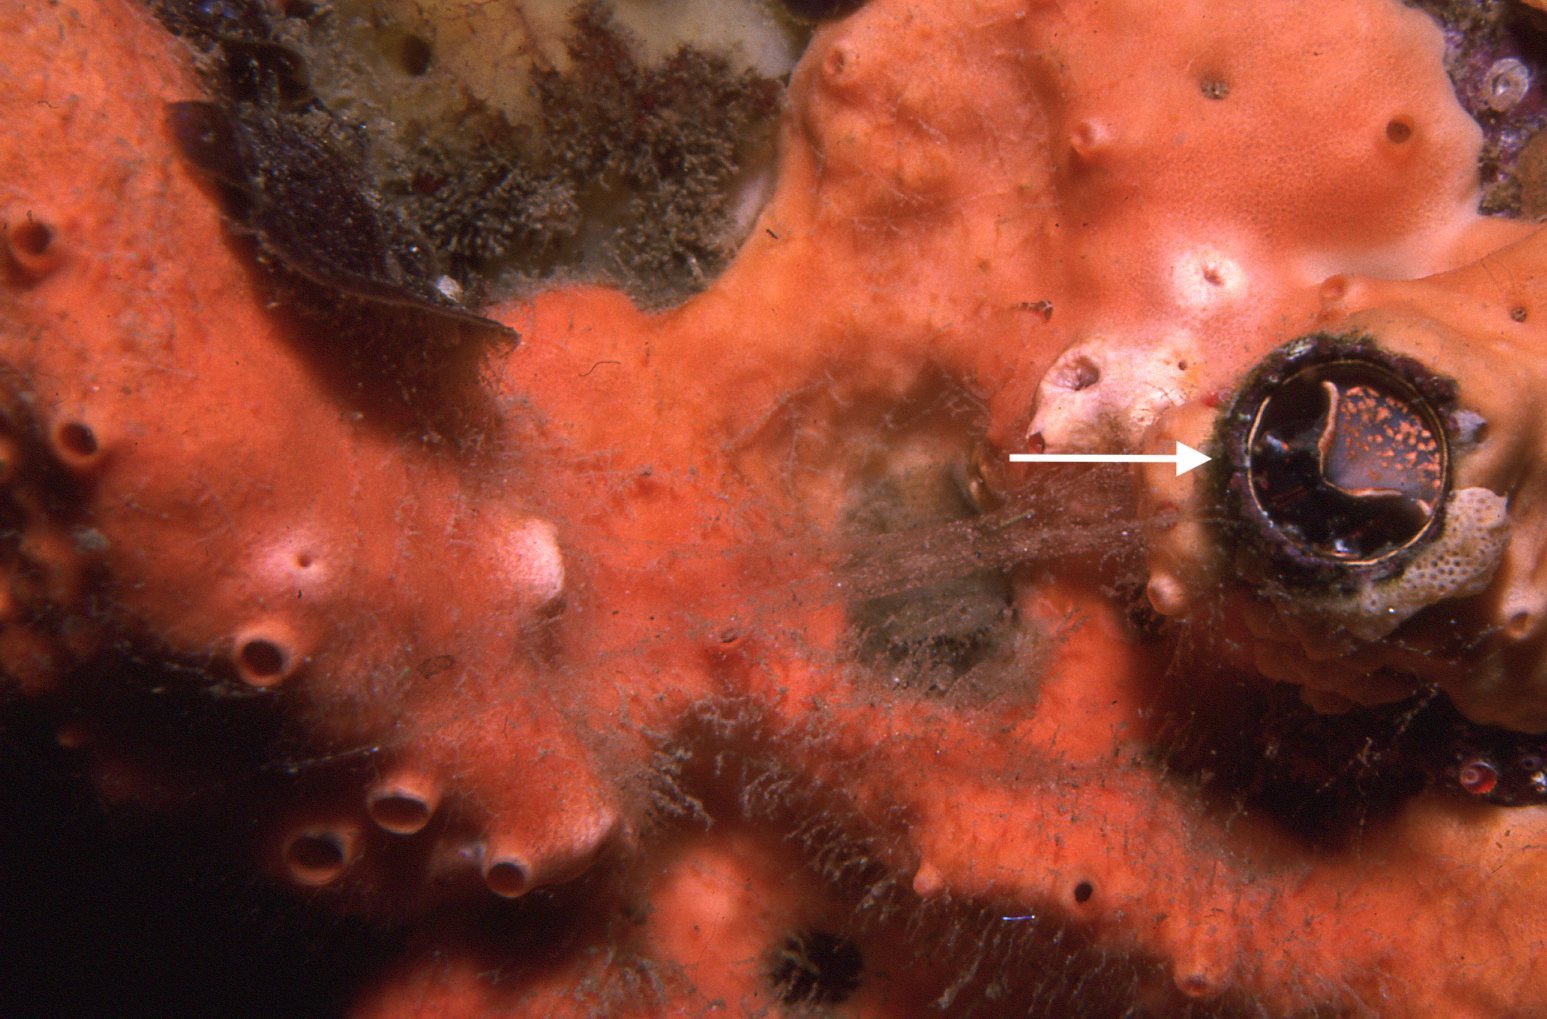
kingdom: Animalia
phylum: Mollusca
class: Gastropoda
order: Littorinimorpha
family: Vermetidae
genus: Thylacodes
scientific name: Thylacodes sipho
